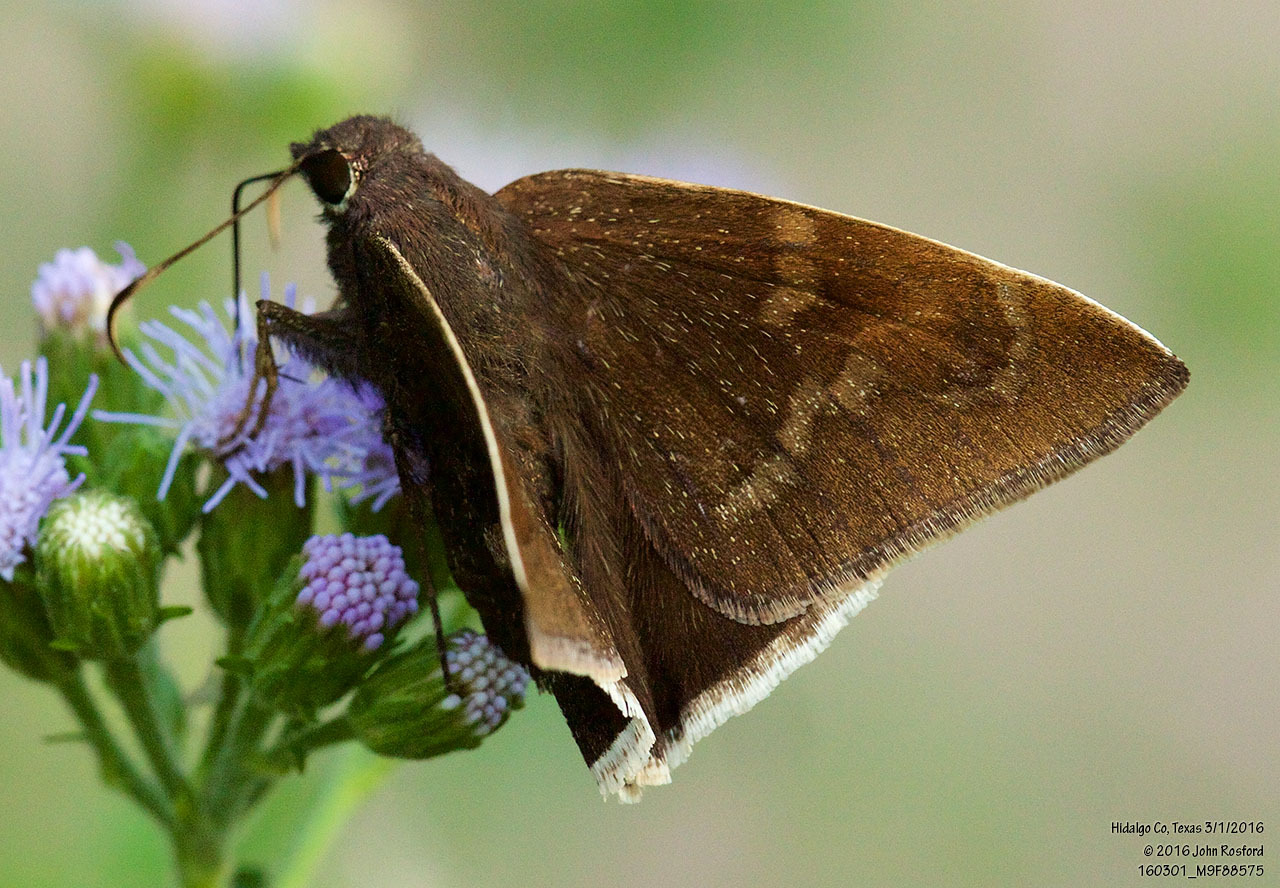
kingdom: Animalia
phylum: Arthropoda
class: Insecta
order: Lepidoptera
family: Hesperiidae
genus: Achalarus
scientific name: Achalarus Murgaria albociliatus
